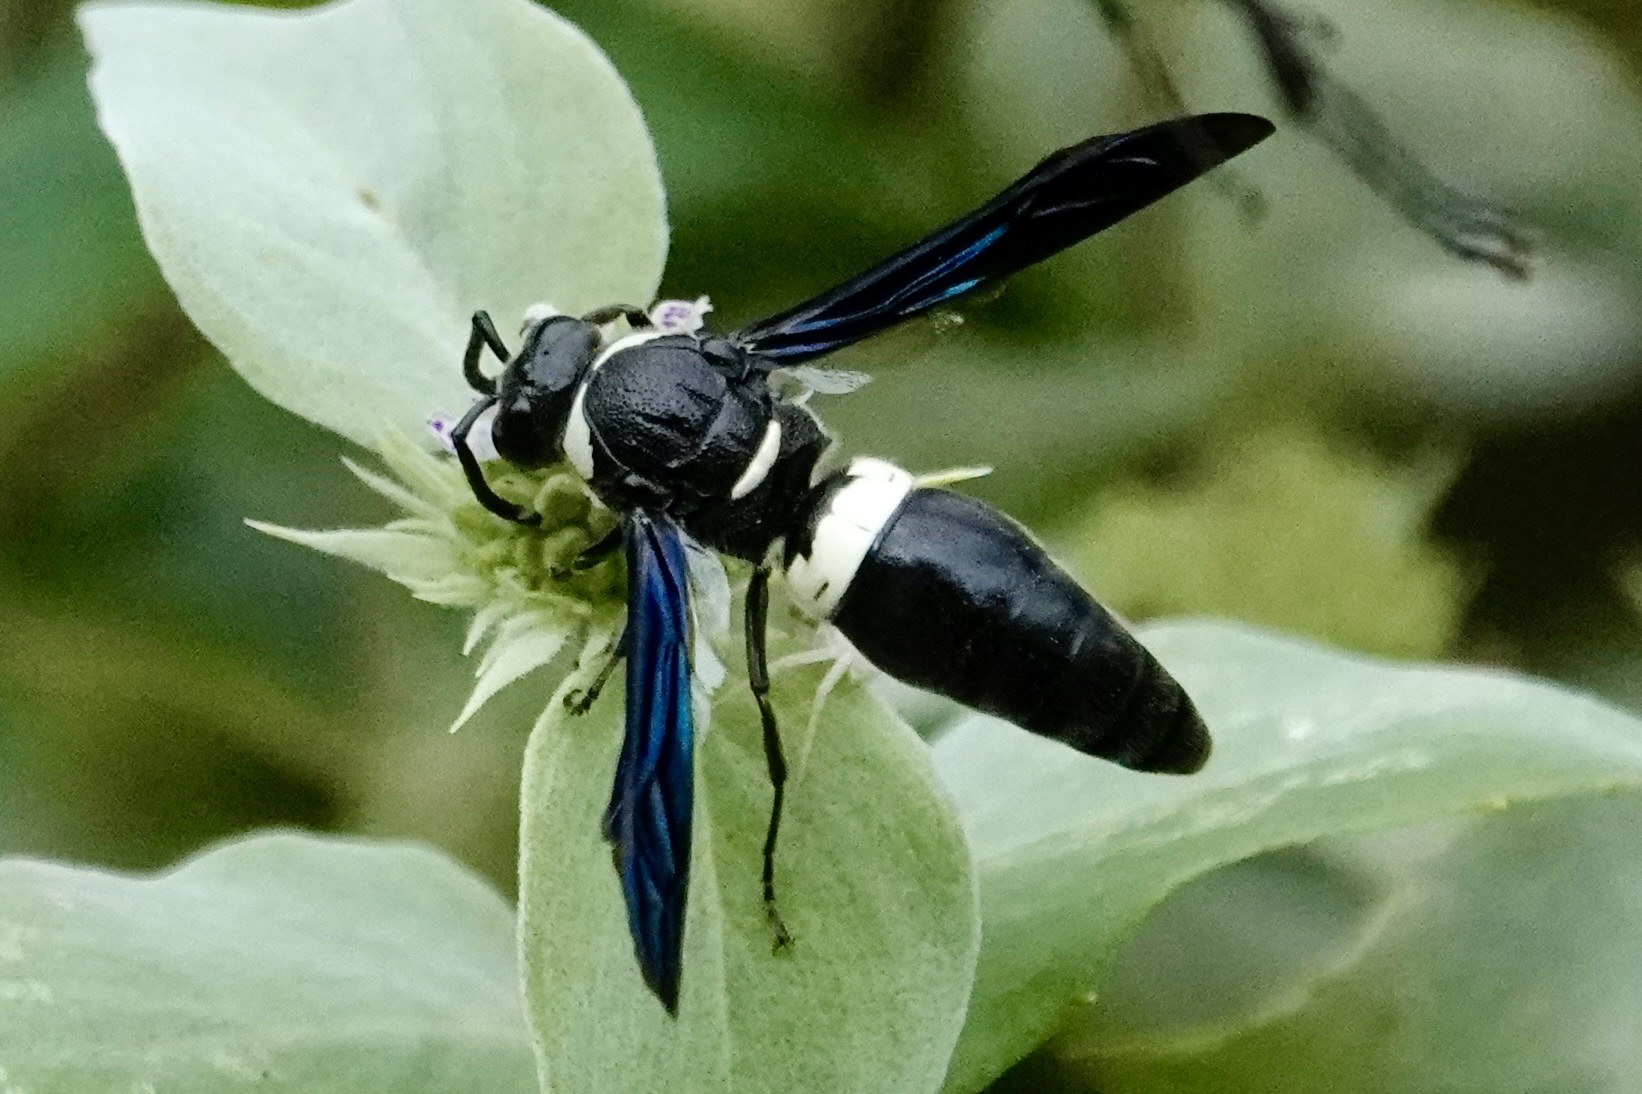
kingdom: Animalia
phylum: Arthropoda
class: Insecta
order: Hymenoptera
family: Eumenidae
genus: Monobia
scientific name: Monobia quadridens
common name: Four-toothed mason wasp
